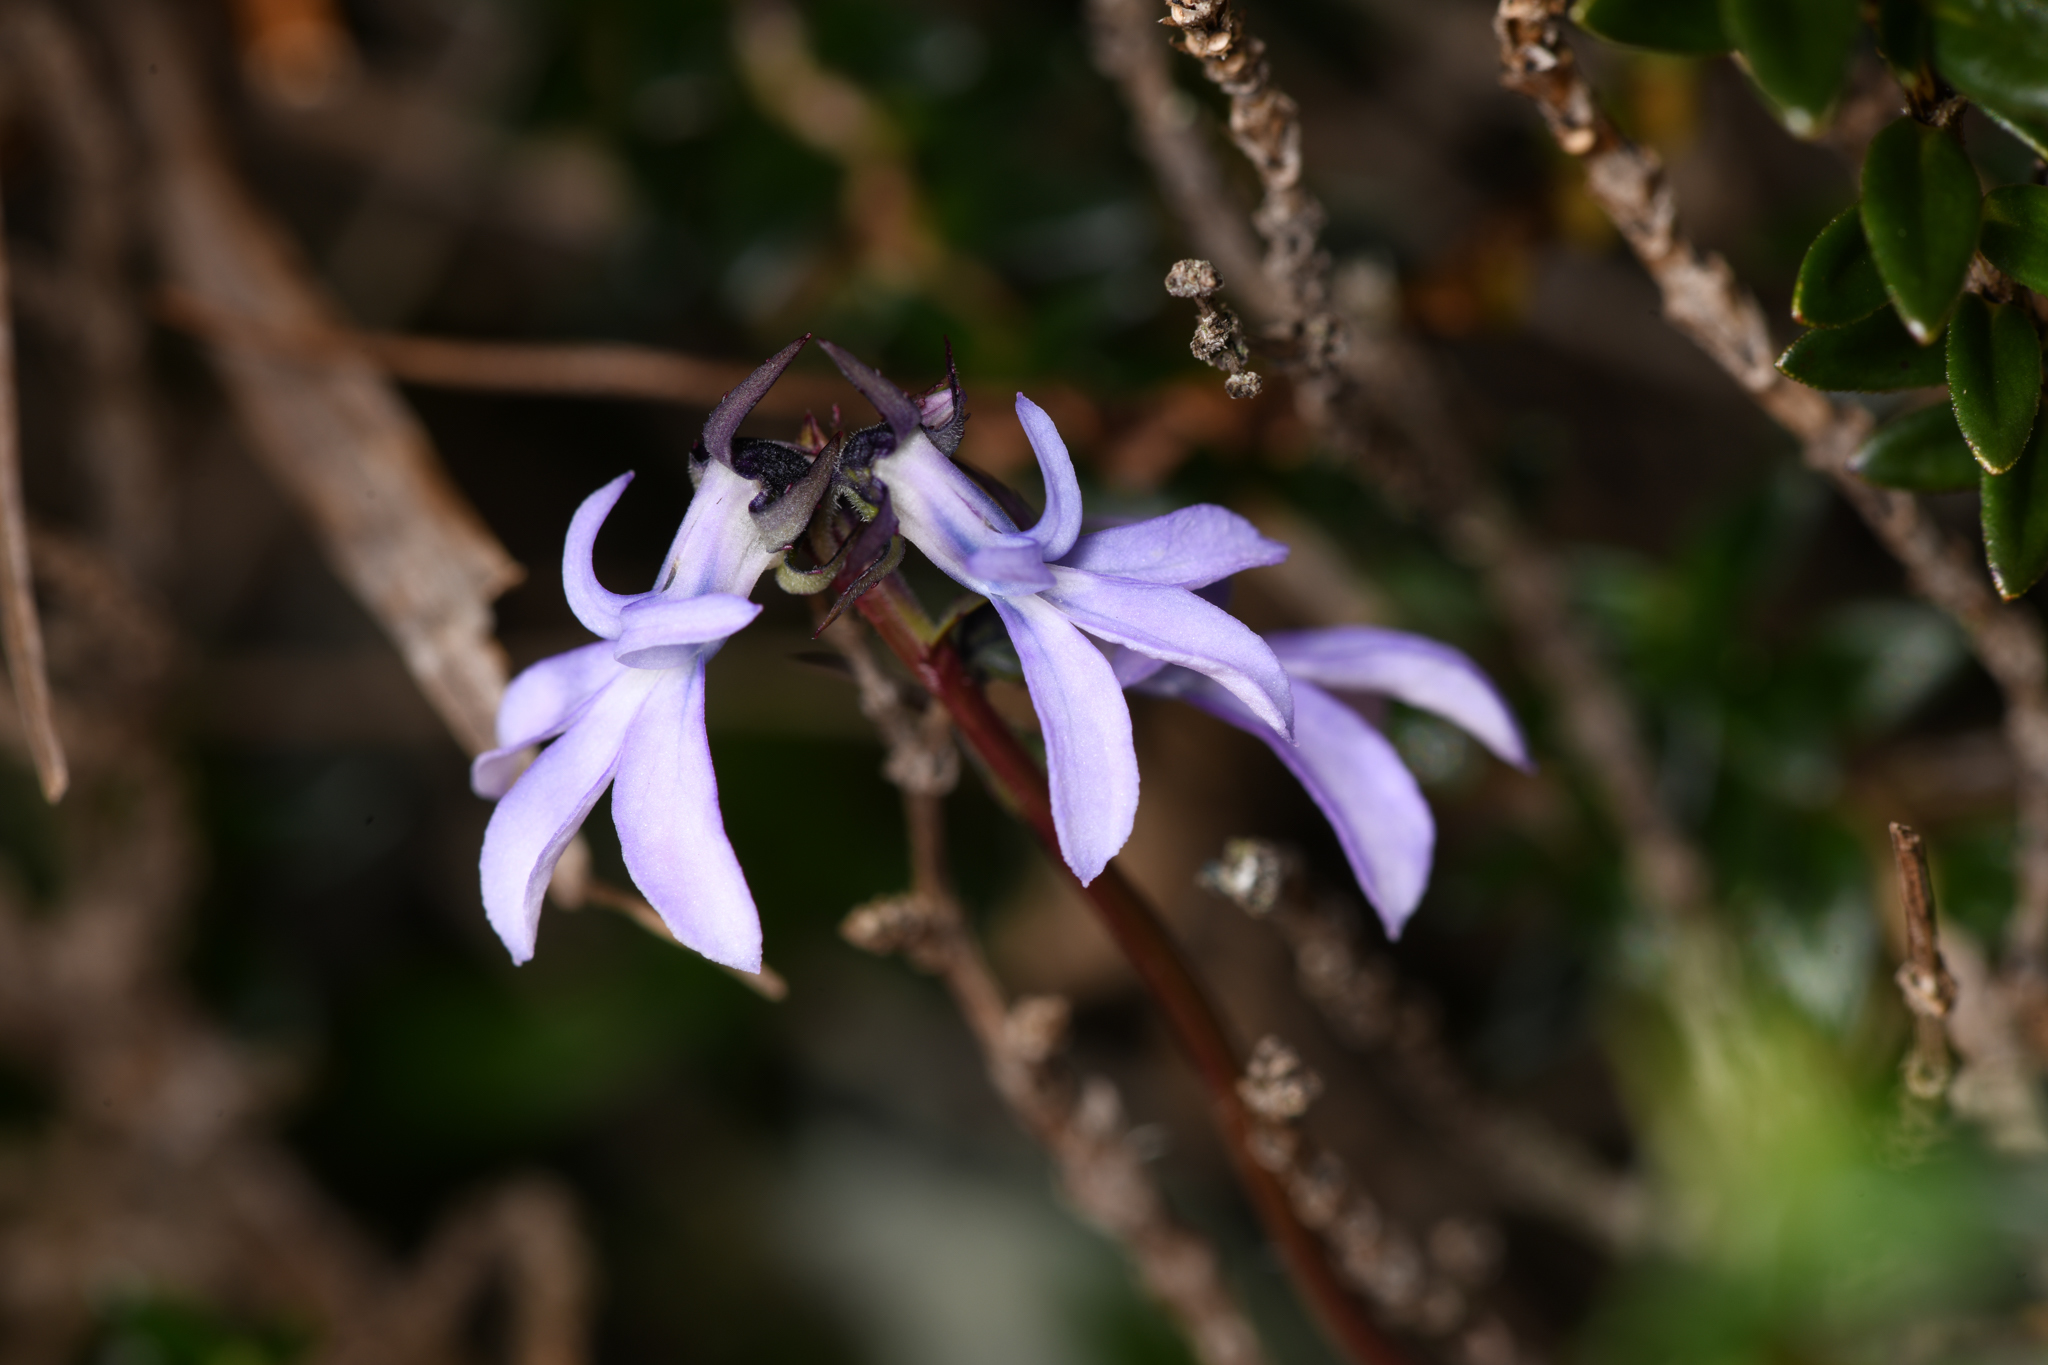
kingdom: Plantae
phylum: Tracheophyta
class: Magnoliopsida
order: Asterales
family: Campanulaceae
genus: Lobelia
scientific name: Lobelia irasuensis
